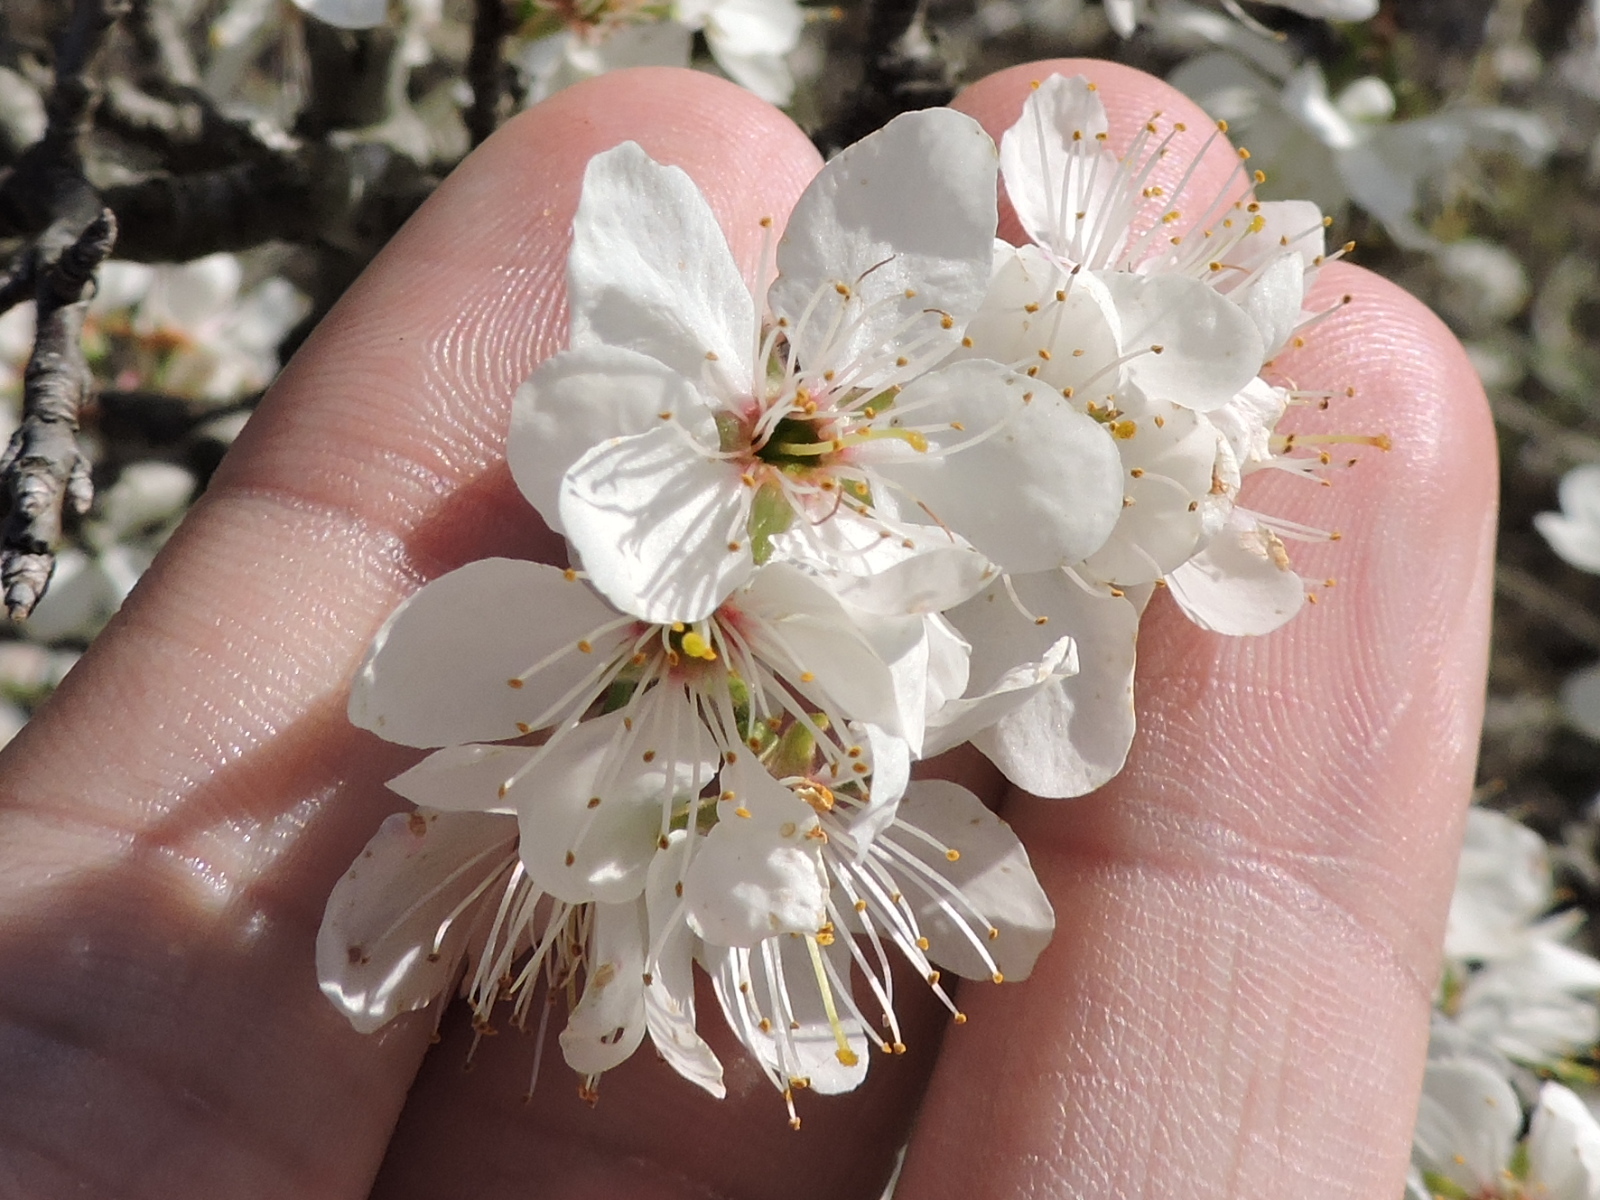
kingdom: Plantae
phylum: Tracheophyta
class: Magnoliopsida
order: Rosales
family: Rosaceae
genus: Prunus
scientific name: Prunus mexicana
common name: Mexican plum
